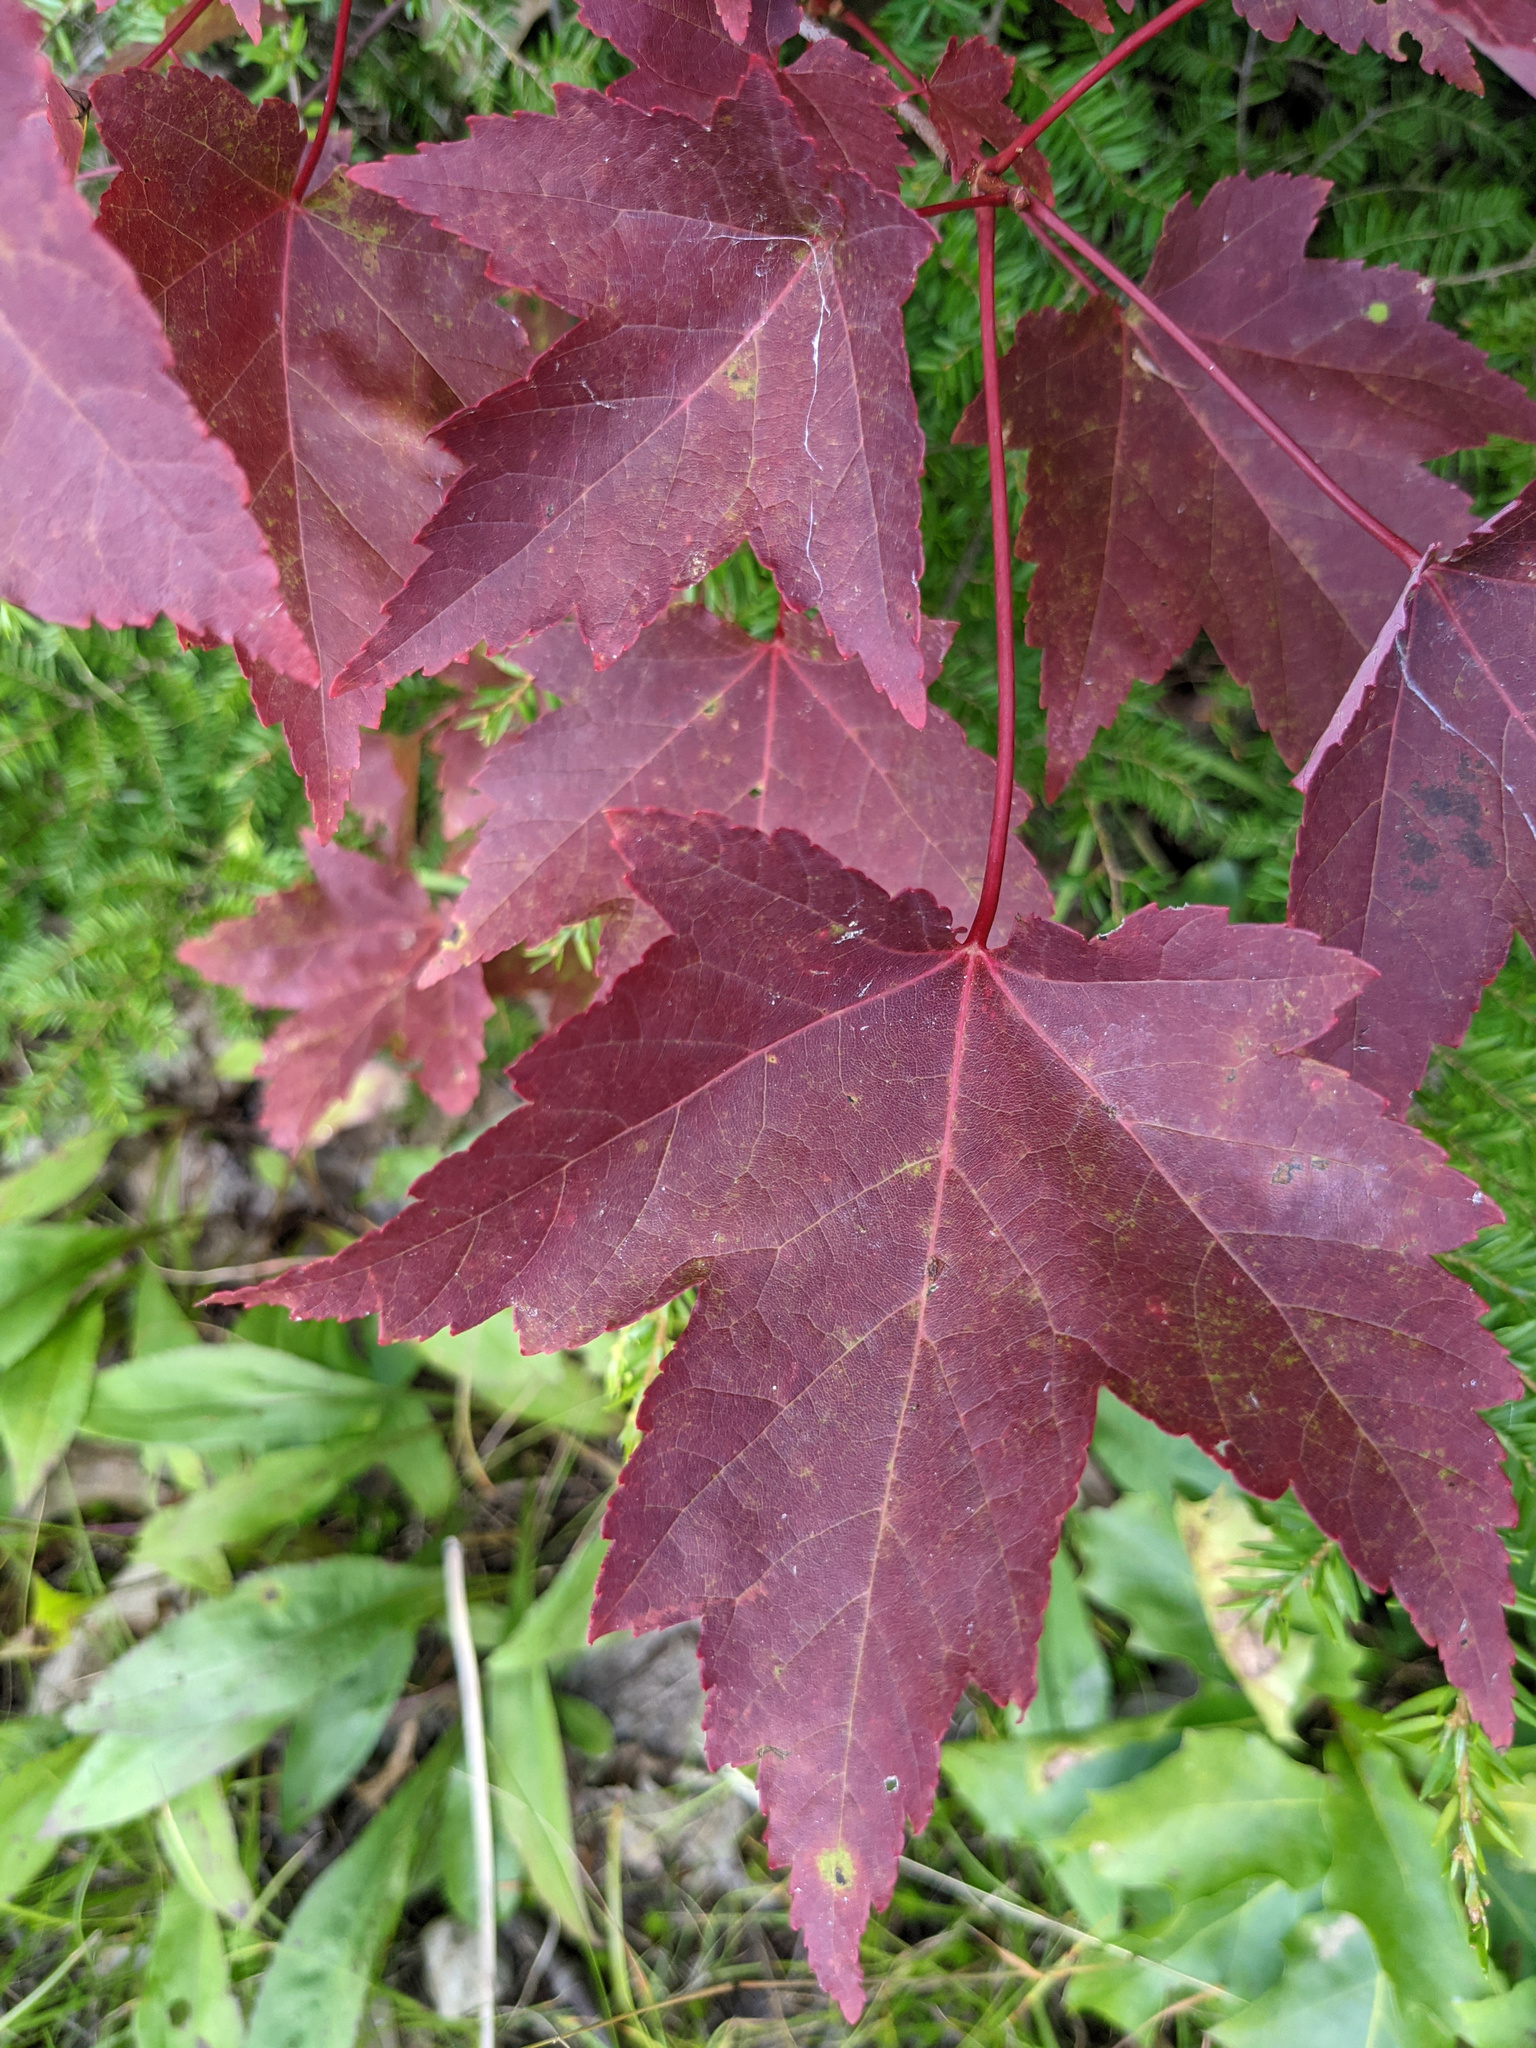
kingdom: Plantae
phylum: Tracheophyta
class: Magnoliopsida
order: Sapindales
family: Sapindaceae
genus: Acer
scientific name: Acer rubrum
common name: Red maple
